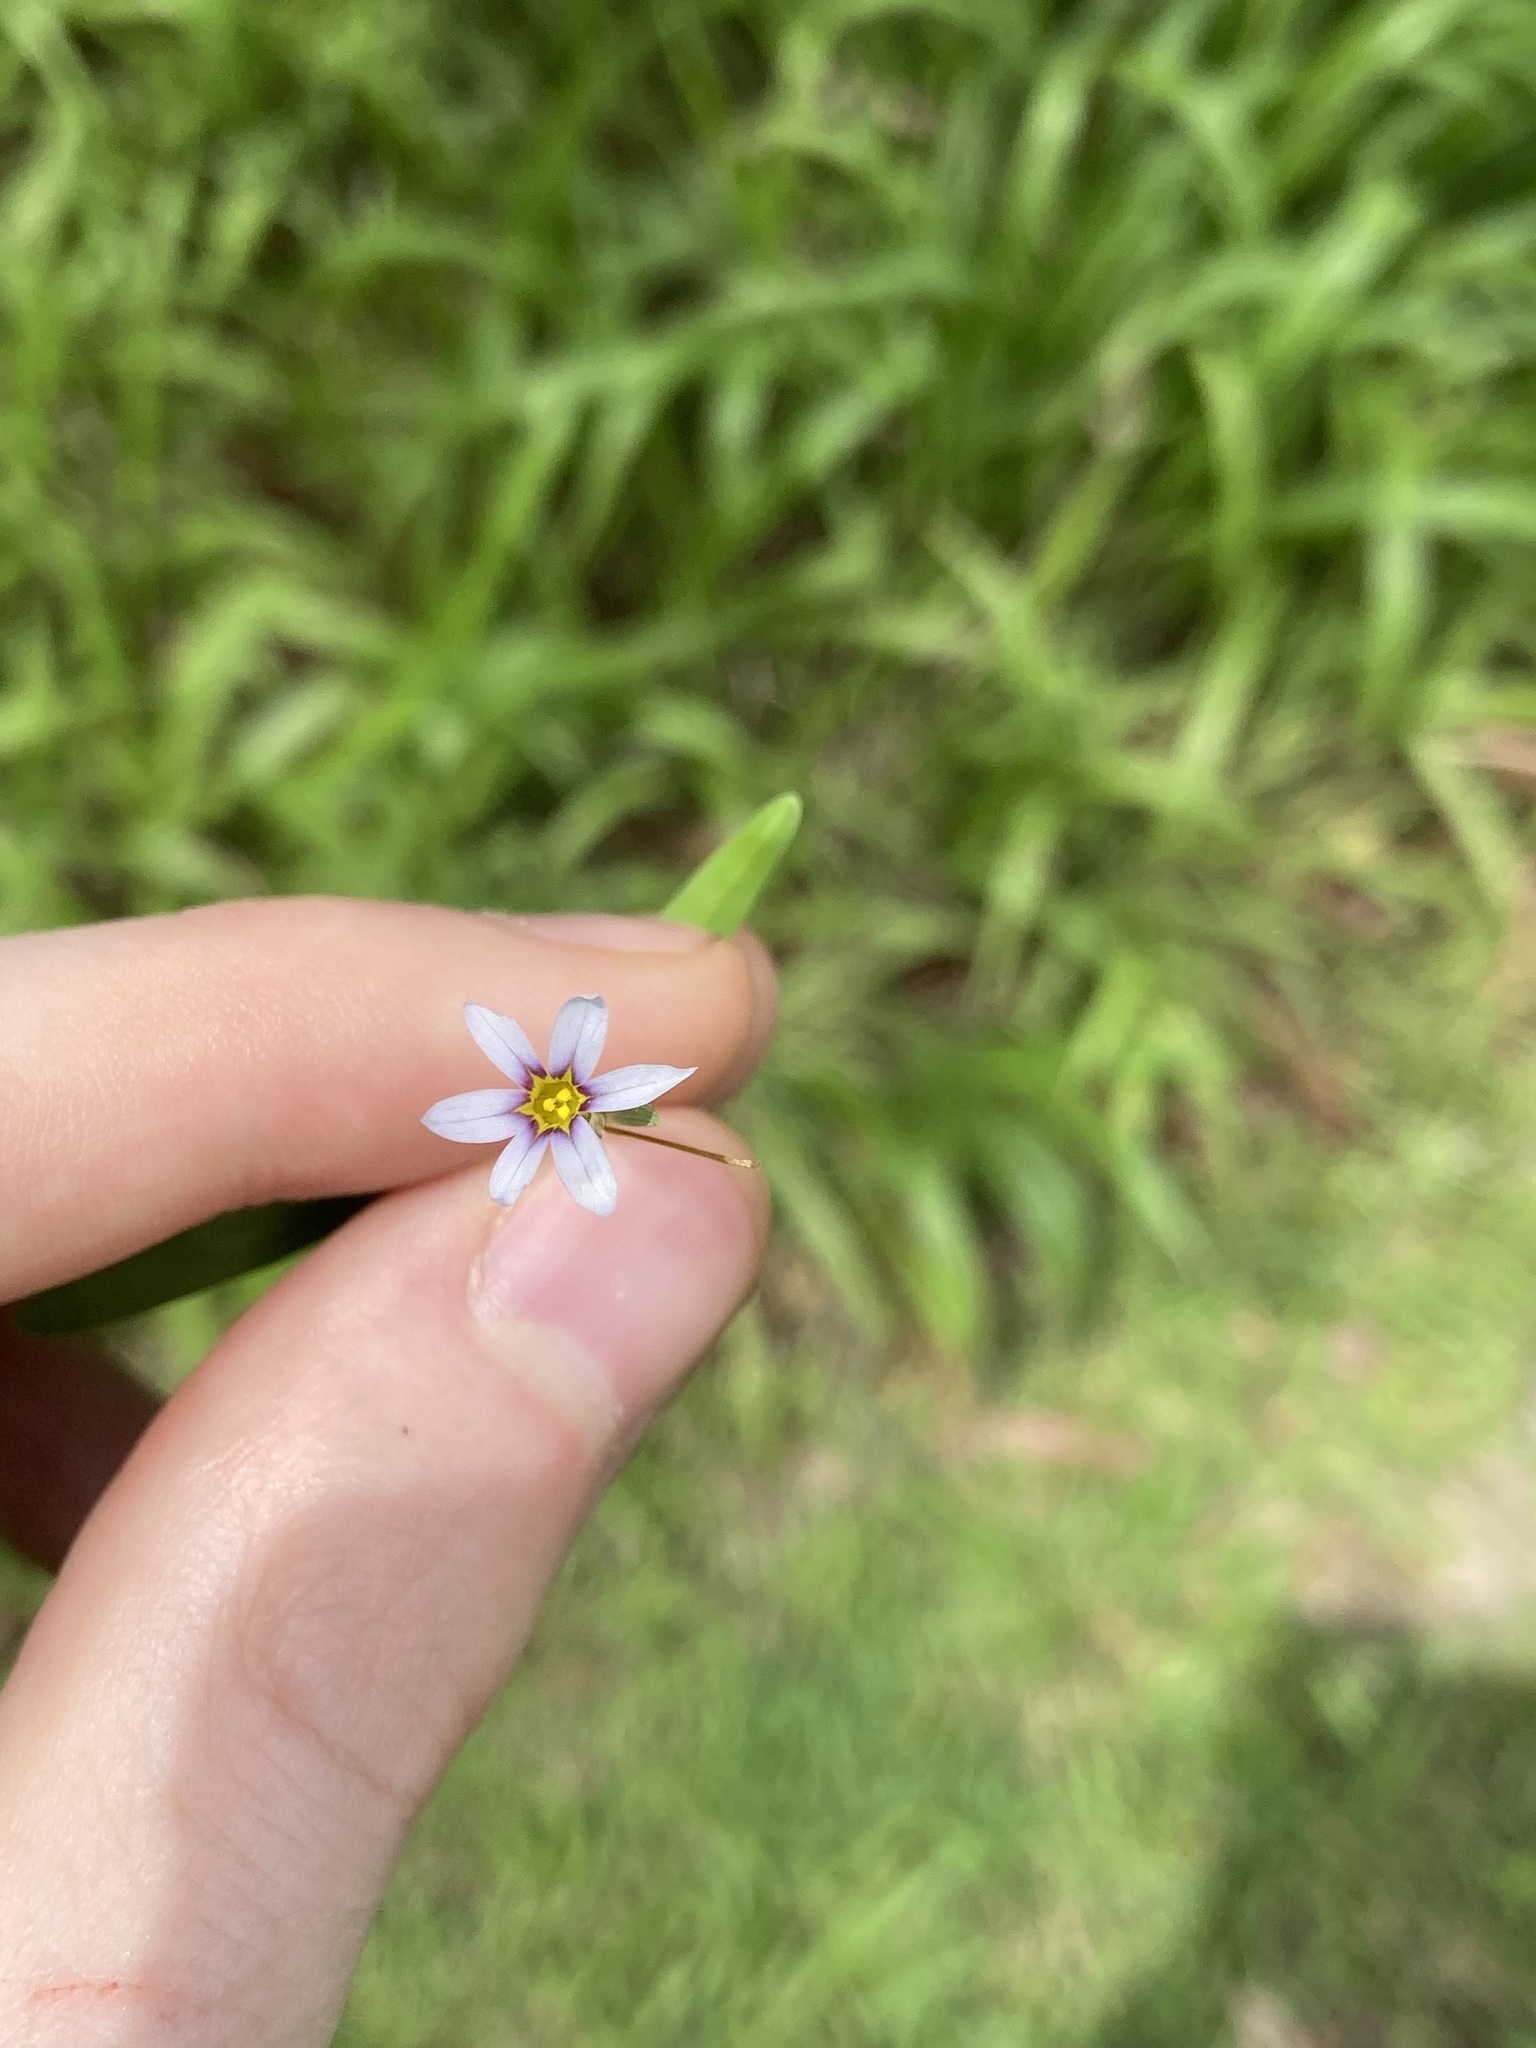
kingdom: Plantae
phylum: Tracheophyta
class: Liliopsida
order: Asparagales
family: Iridaceae
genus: Sisyrinchium
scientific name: Sisyrinchium micranthum
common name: Bermuda pigroot
